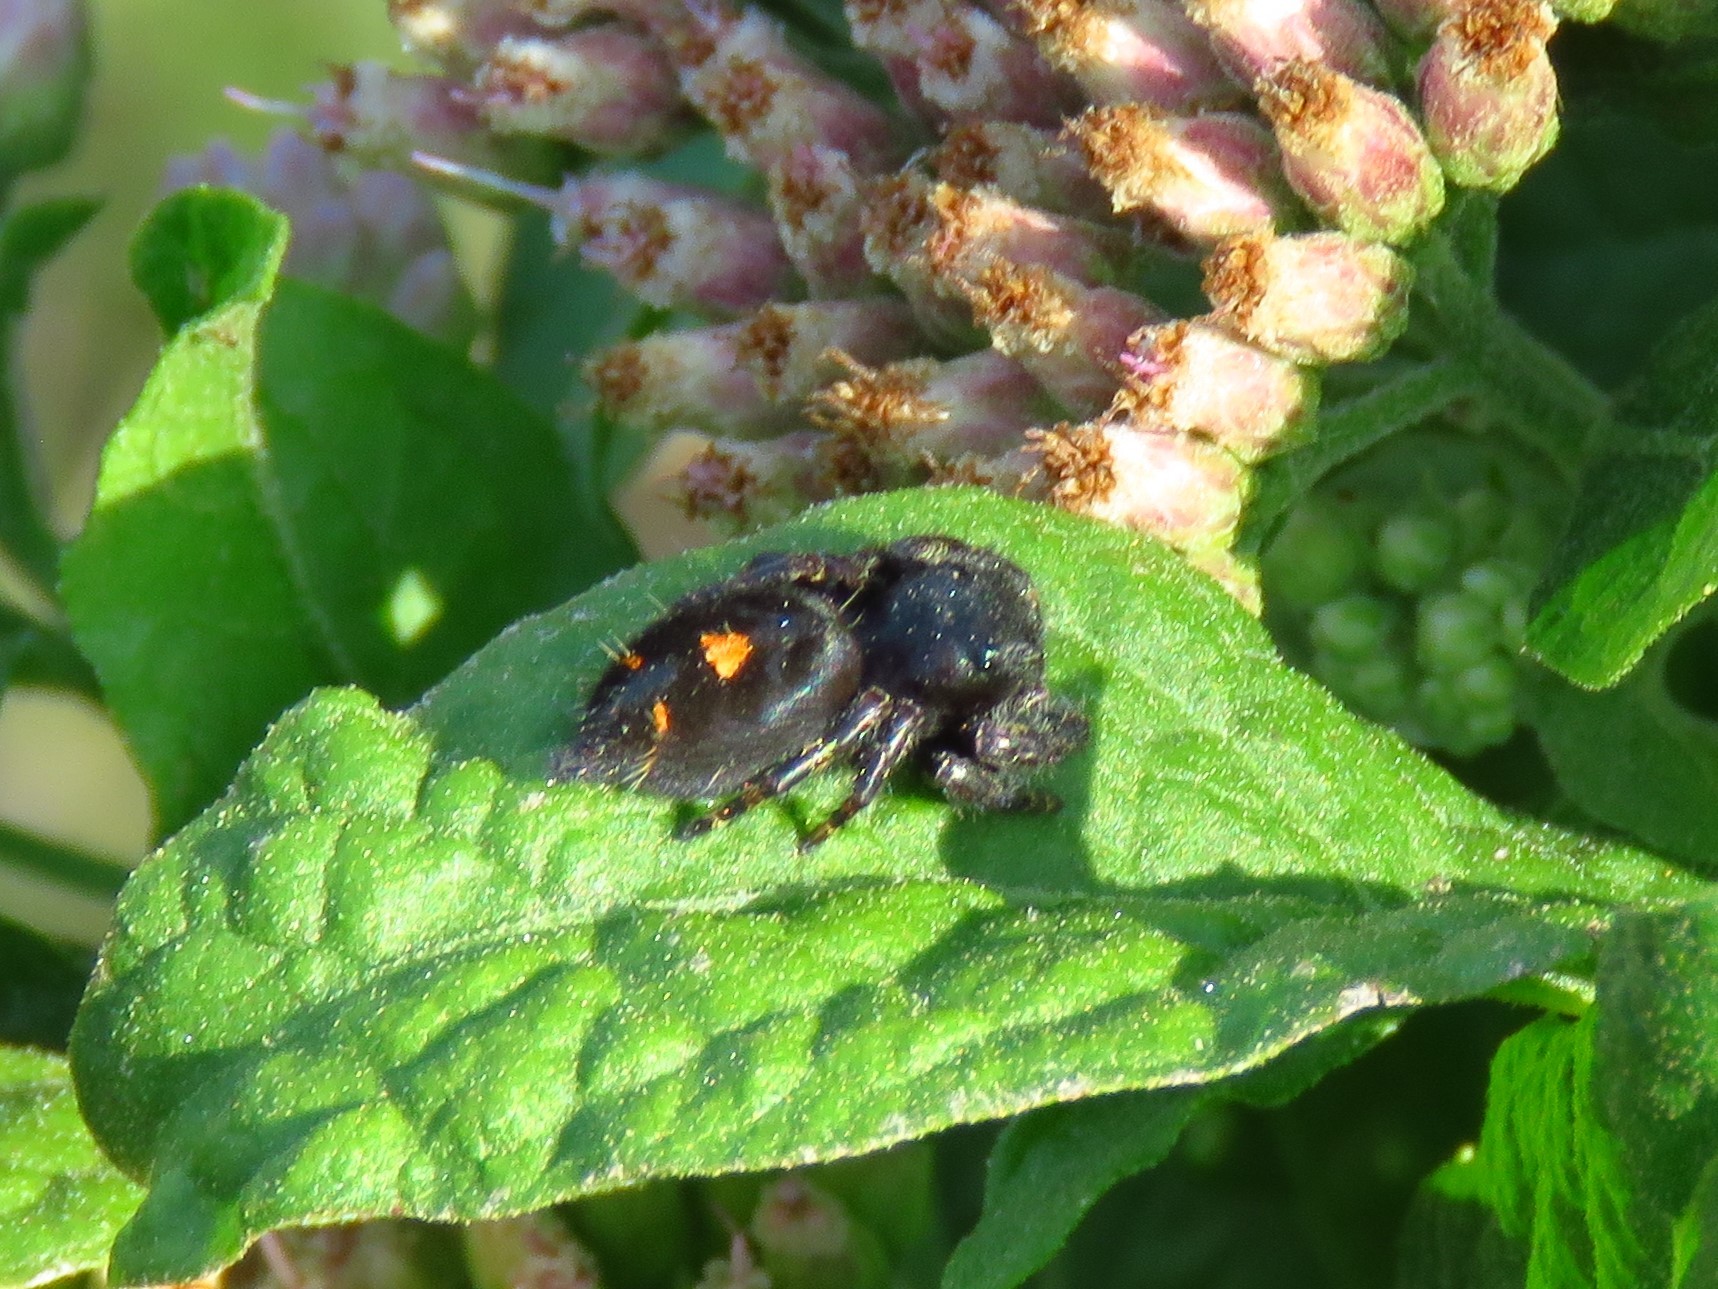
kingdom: Animalia
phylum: Arthropoda
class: Arachnida
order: Araneae
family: Salticidae
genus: Phidippus
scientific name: Phidippus audax
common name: Bold jumper
